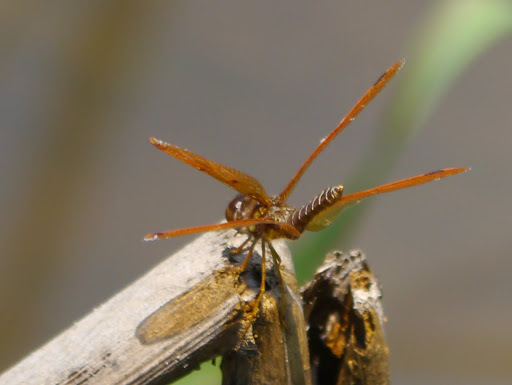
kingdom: Animalia
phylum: Arthropoda
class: Insecta
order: Odonata
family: Libellulidae
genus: Perithemis
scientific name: Perithemis tenera
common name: Eastern amberwing
